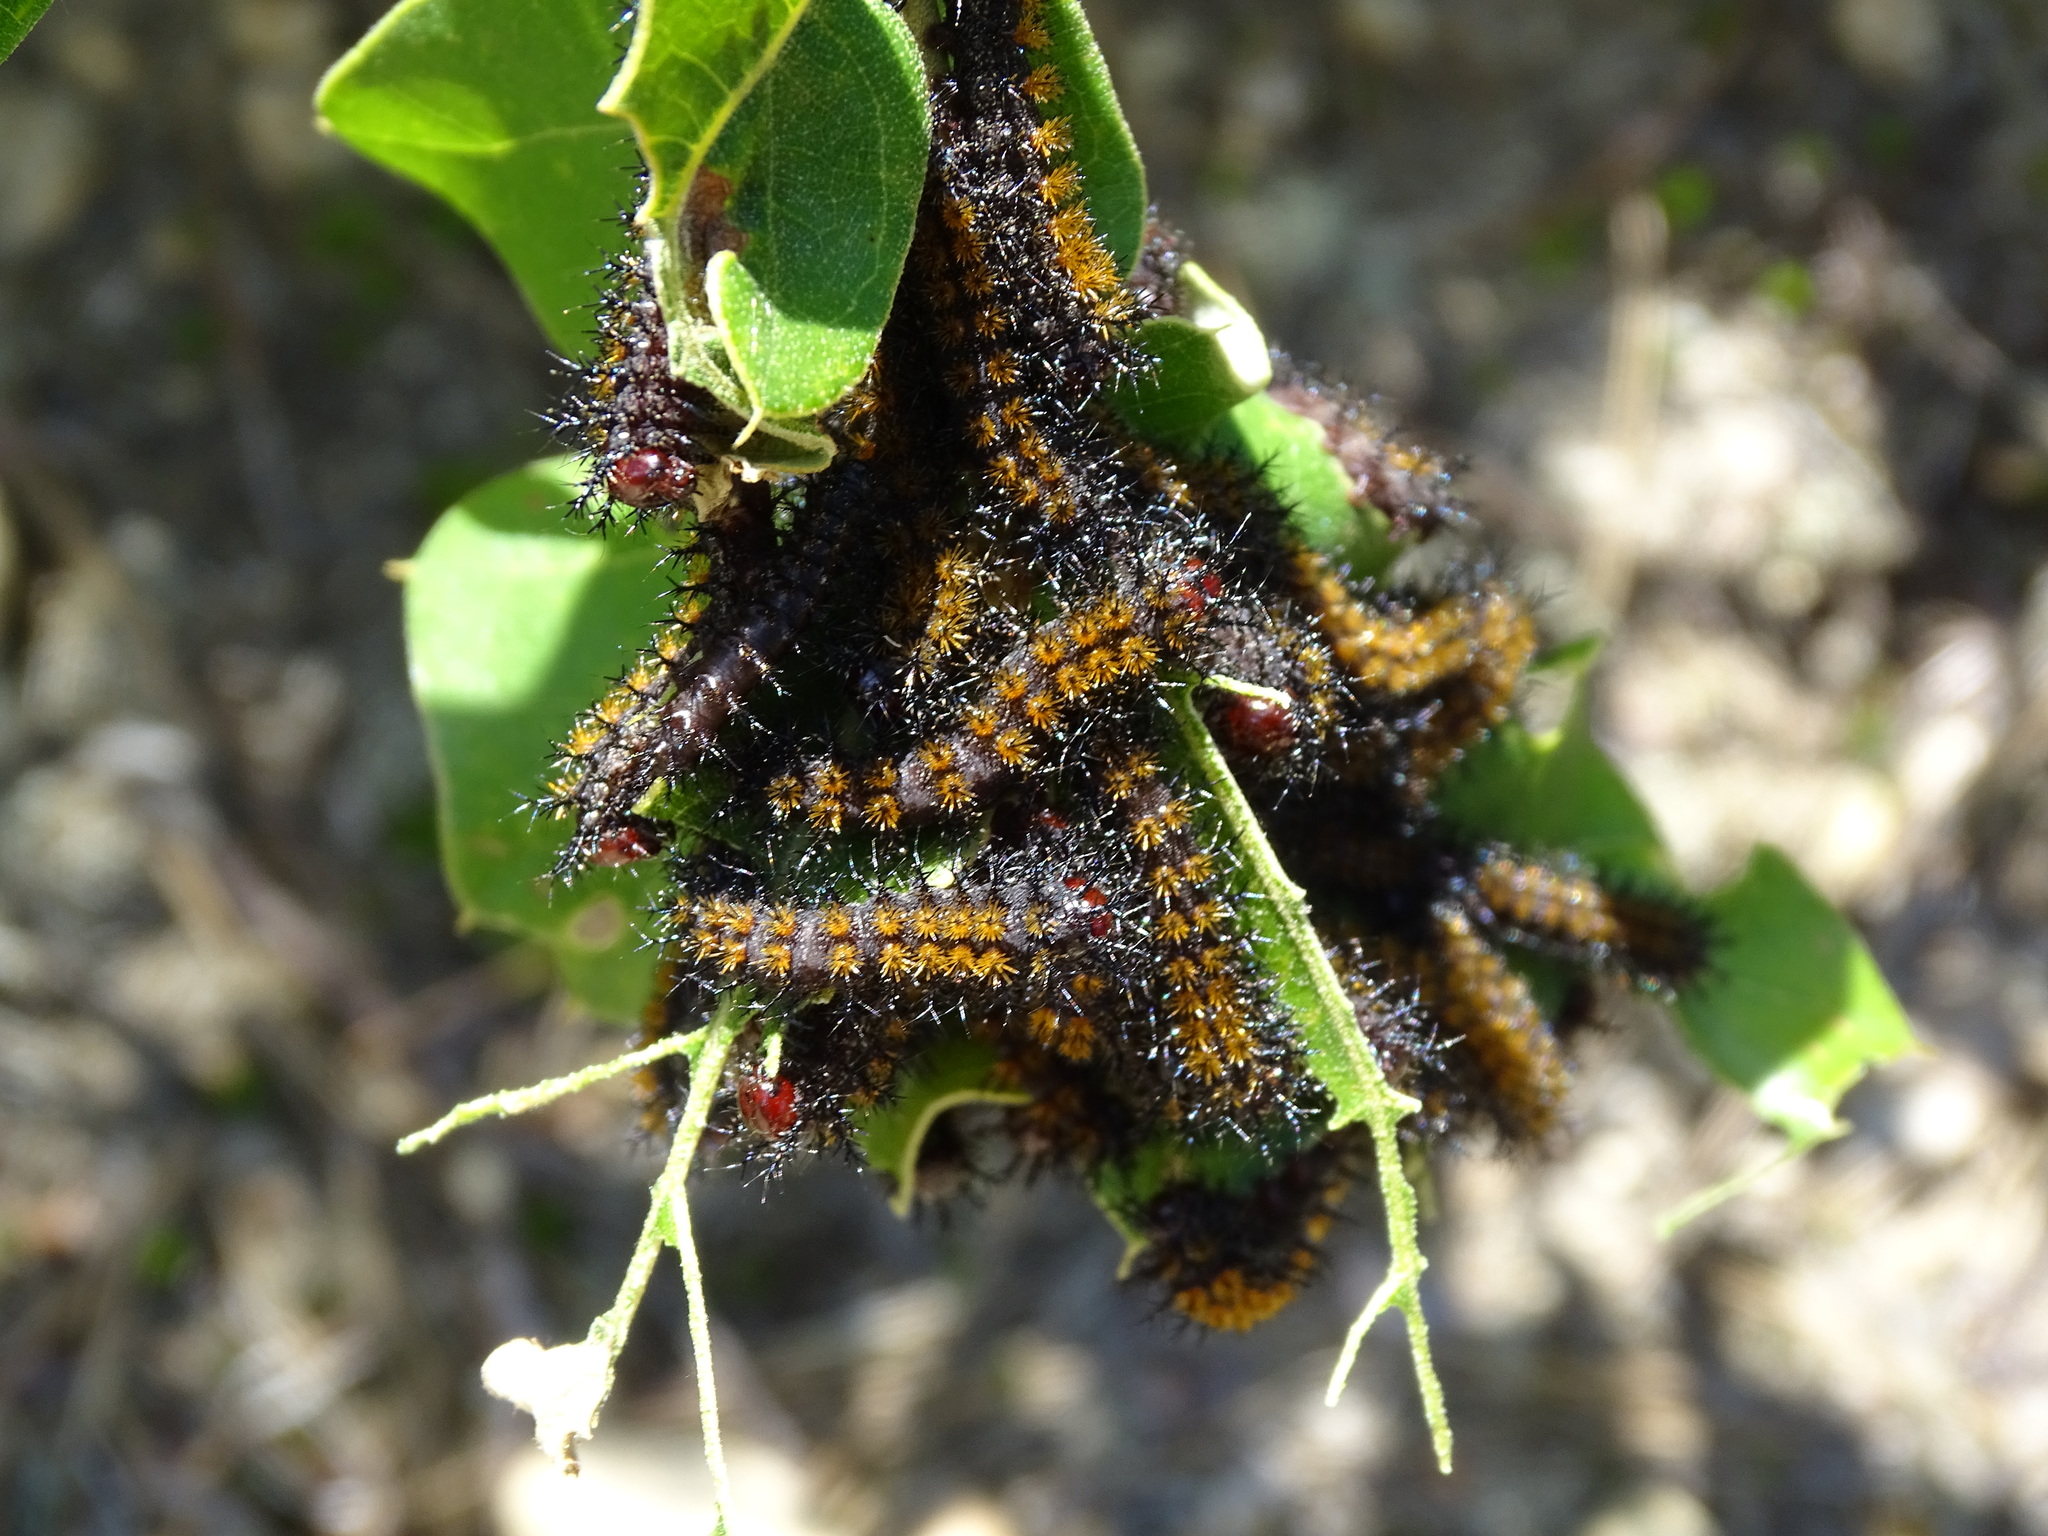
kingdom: Animalia
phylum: Arthropoda
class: Insecta
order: Lepidoptera
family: Saturniidae
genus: Hemileuca
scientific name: Hemileuca maia
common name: Eastern buckmoth
